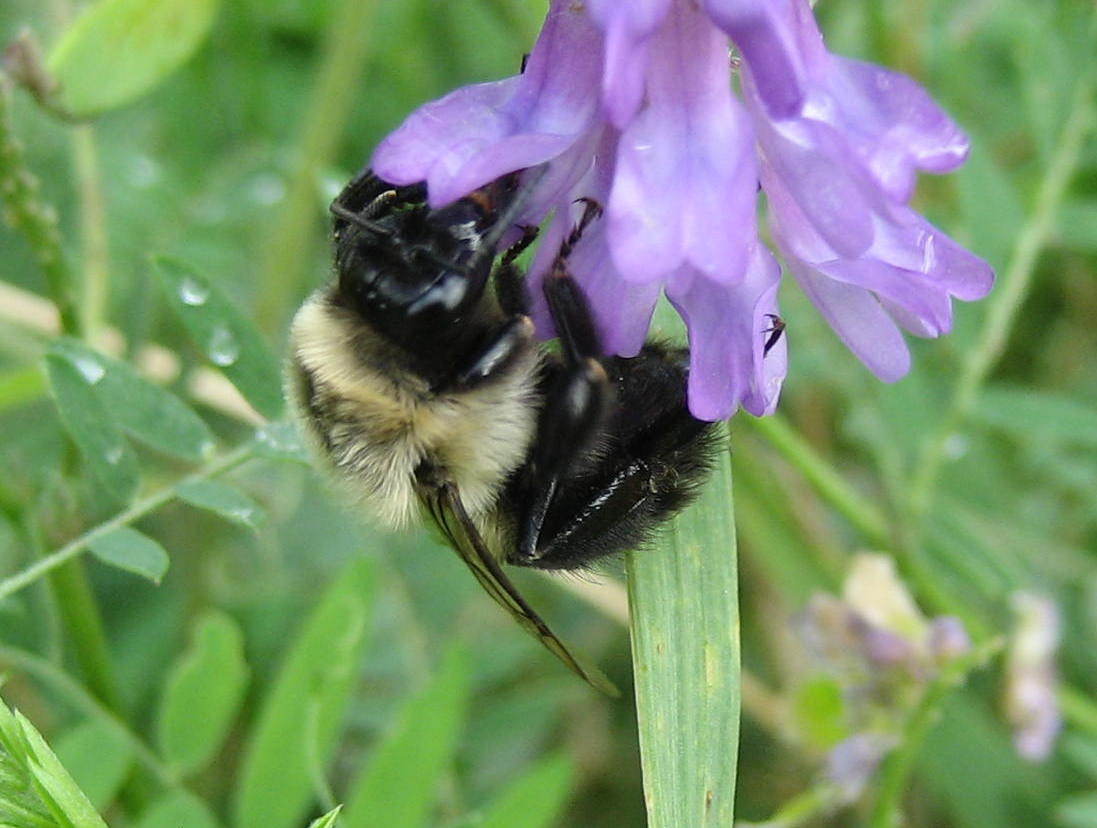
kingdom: Animalia
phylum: Arthropoda
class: Insecta
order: Hymenoptera
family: Apidae
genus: Bombus
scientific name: Bombus impatiens
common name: Common eastern bumble bee
